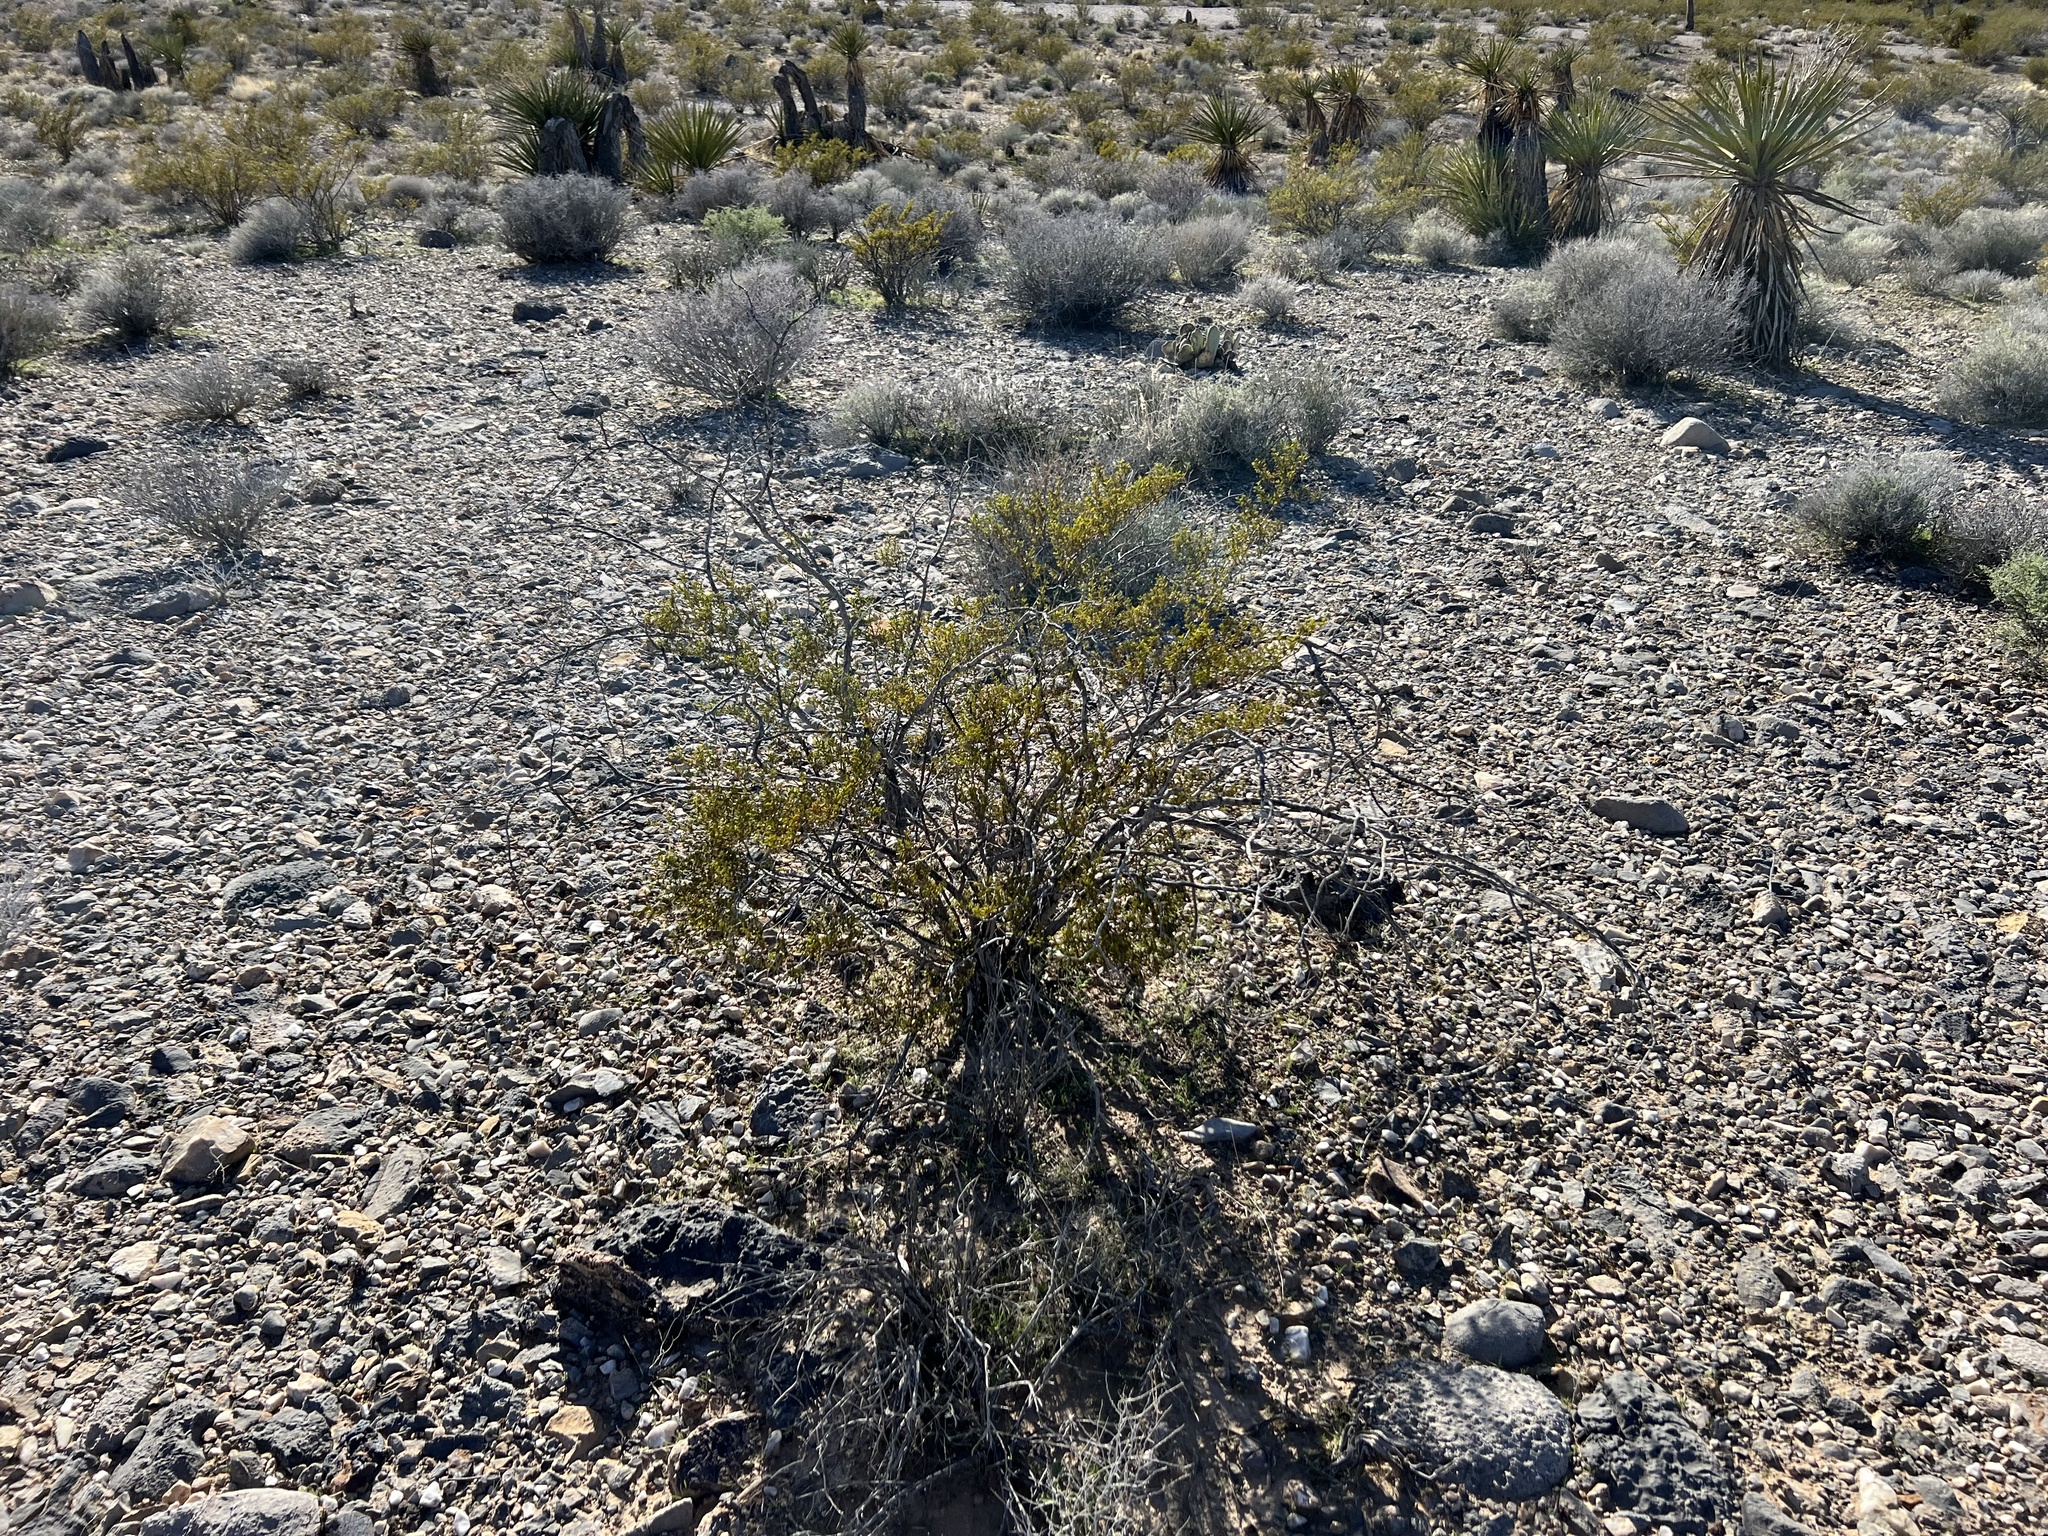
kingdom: Plantae
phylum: Tracheophyta
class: Magnoliopsida
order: Zygophyllales
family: Zygophyllaceae
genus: Larrea
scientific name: Larrea tridentata
